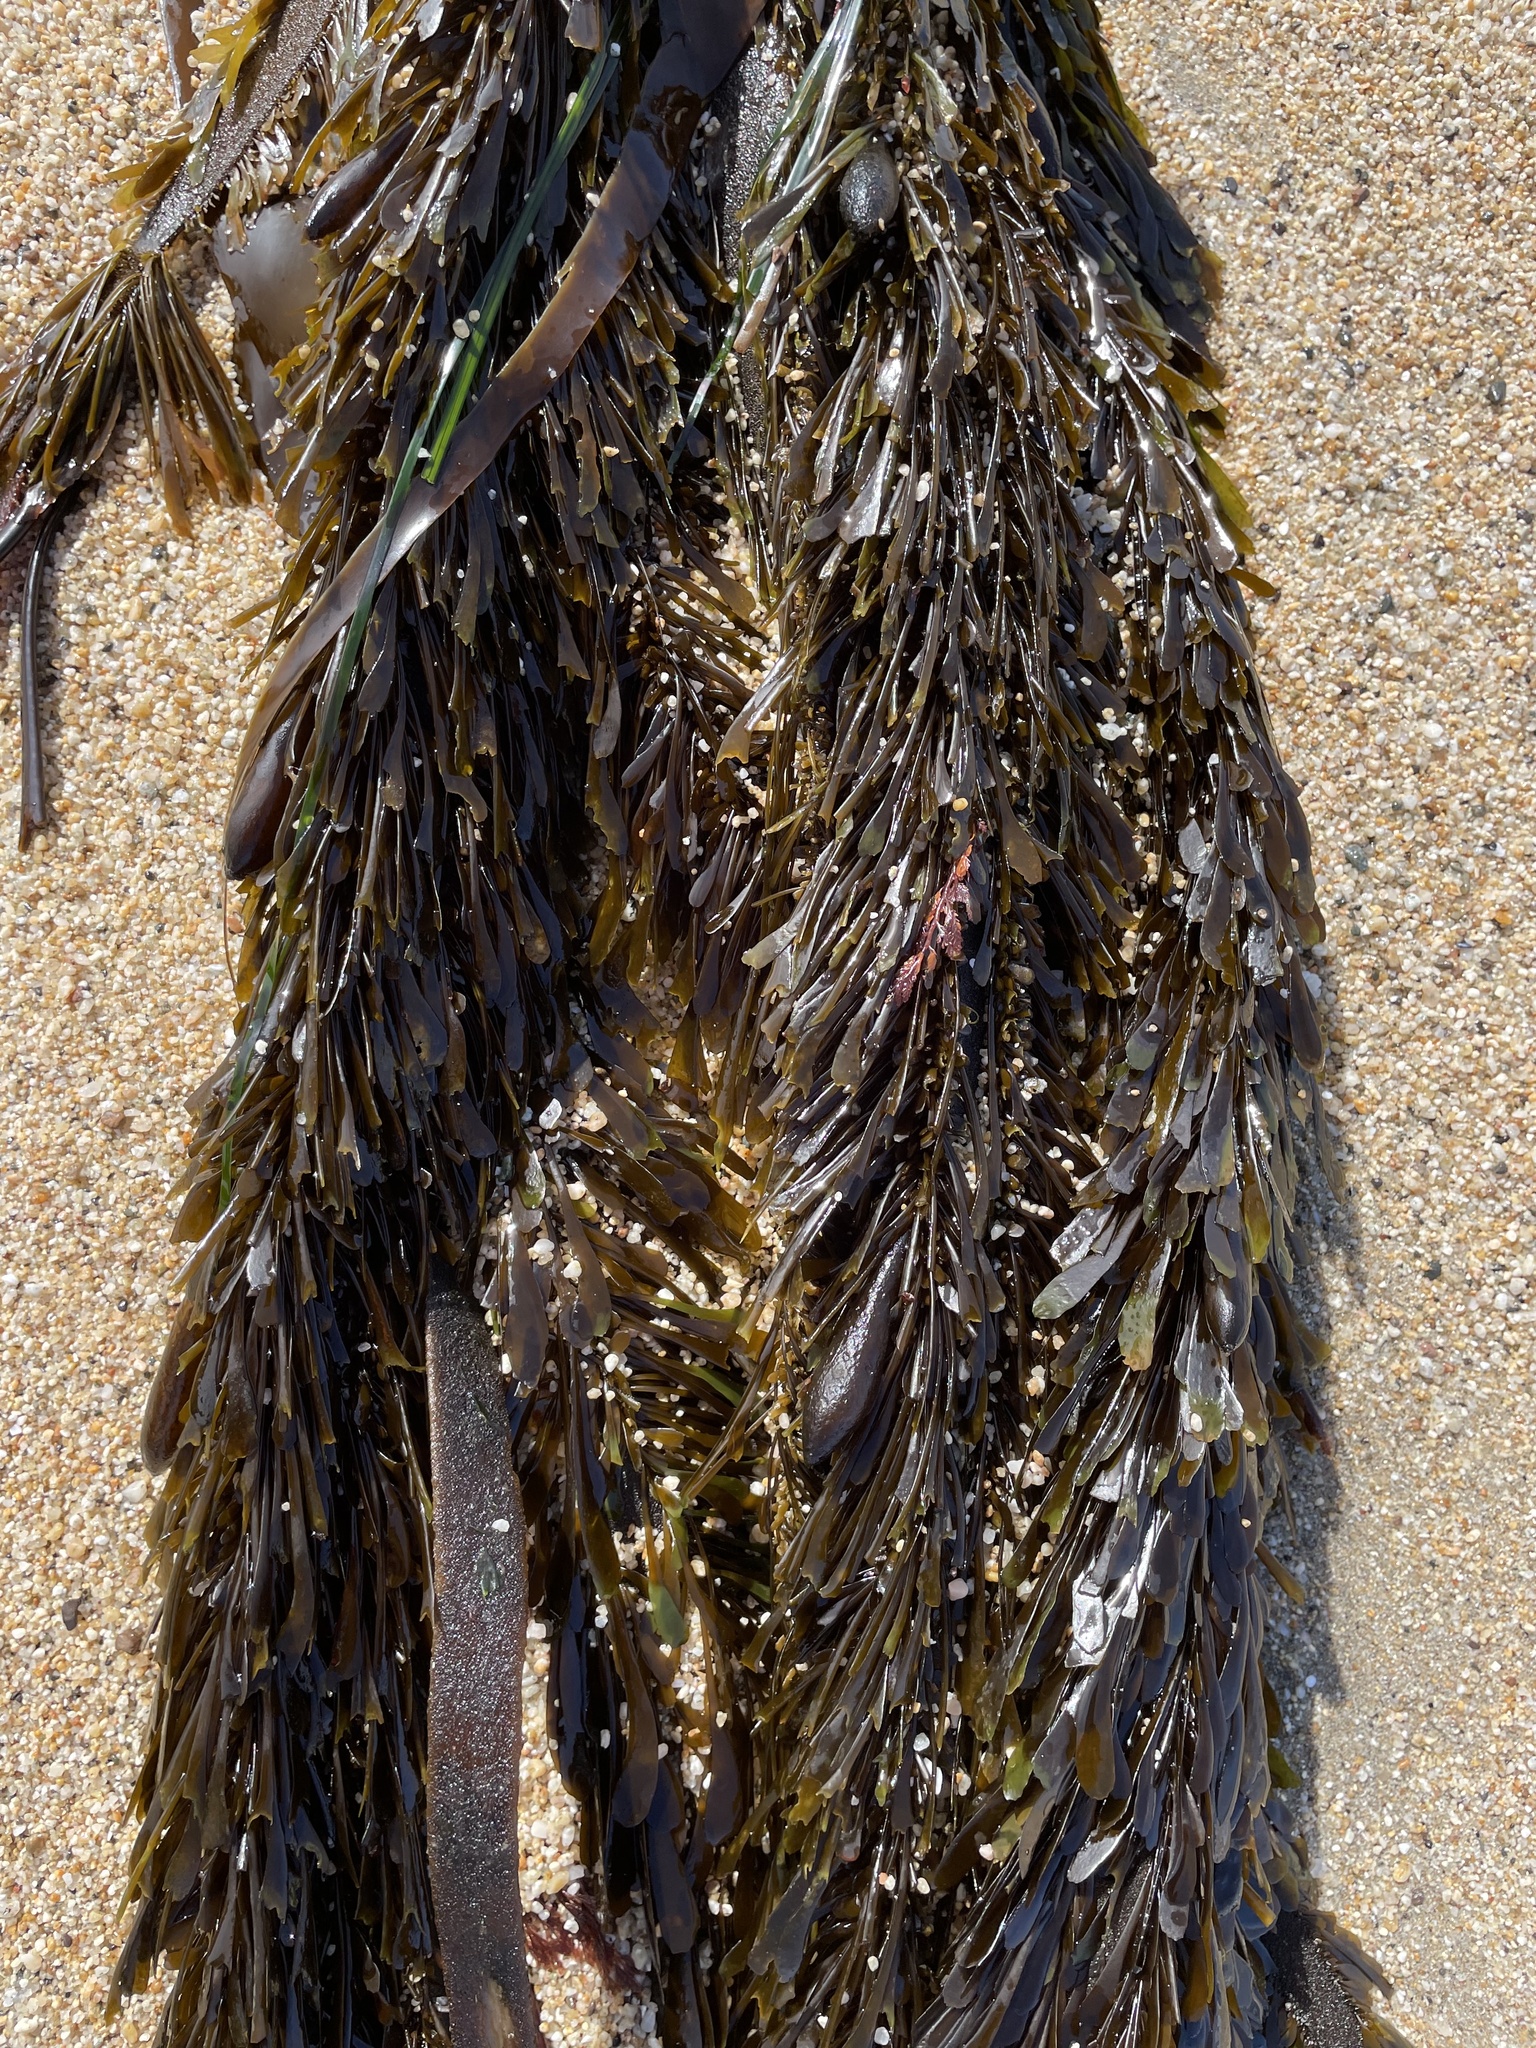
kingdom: Chromista
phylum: Ochrophyta
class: Phaeophyceae
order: Laminariales
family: Lessoniaceae
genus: Egregia
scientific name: Egregia menziesii
